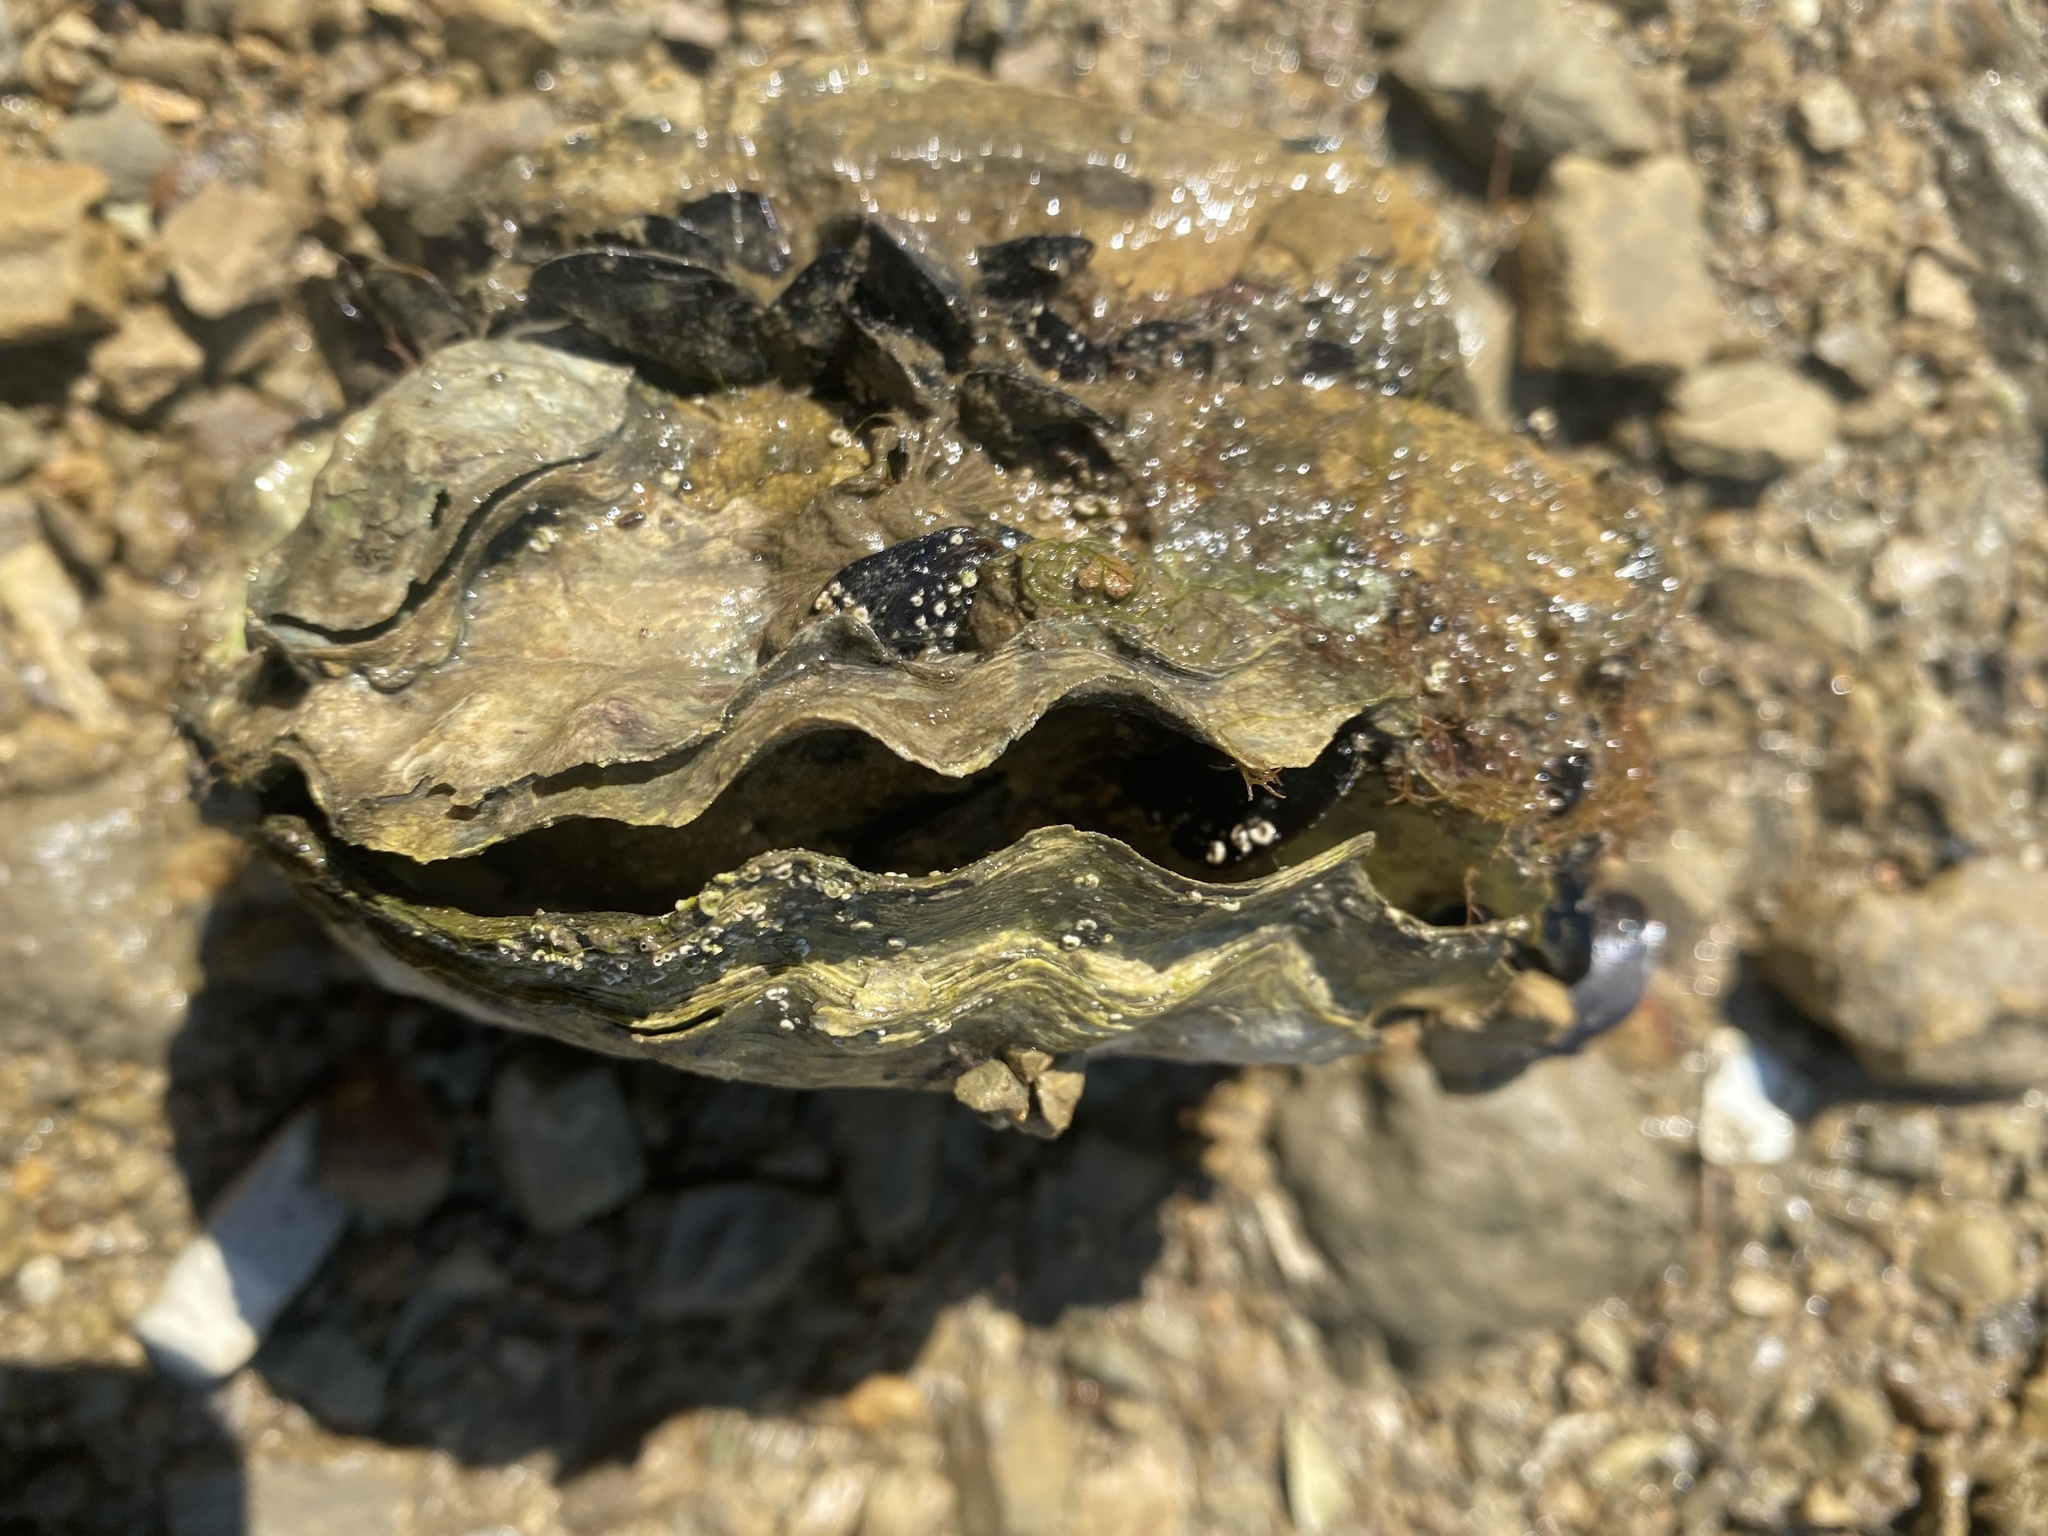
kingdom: Animalia
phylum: Mollusca
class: Bivalvia
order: Ostreida
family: Ostreidae
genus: Magallana
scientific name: Magallana gigas
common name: Pacific oyster
